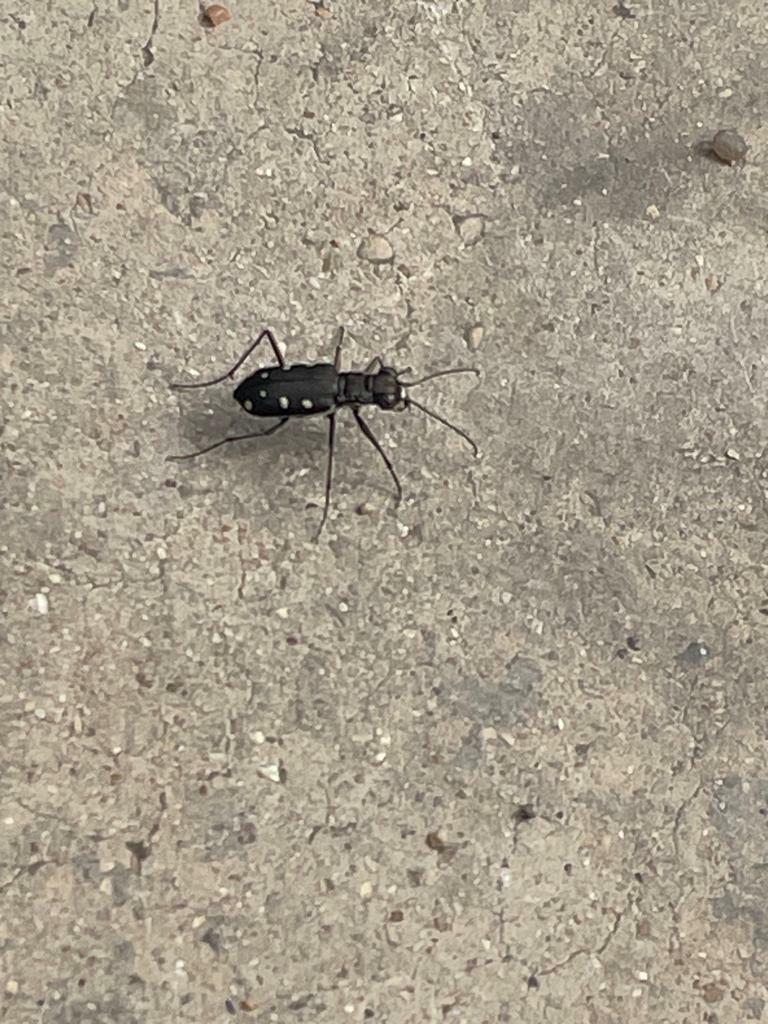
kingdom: Animalia
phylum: Arthropoda
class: Insecta
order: Coleoptera
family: Carabidae
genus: Cicindela
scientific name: Cicindela ocellata
